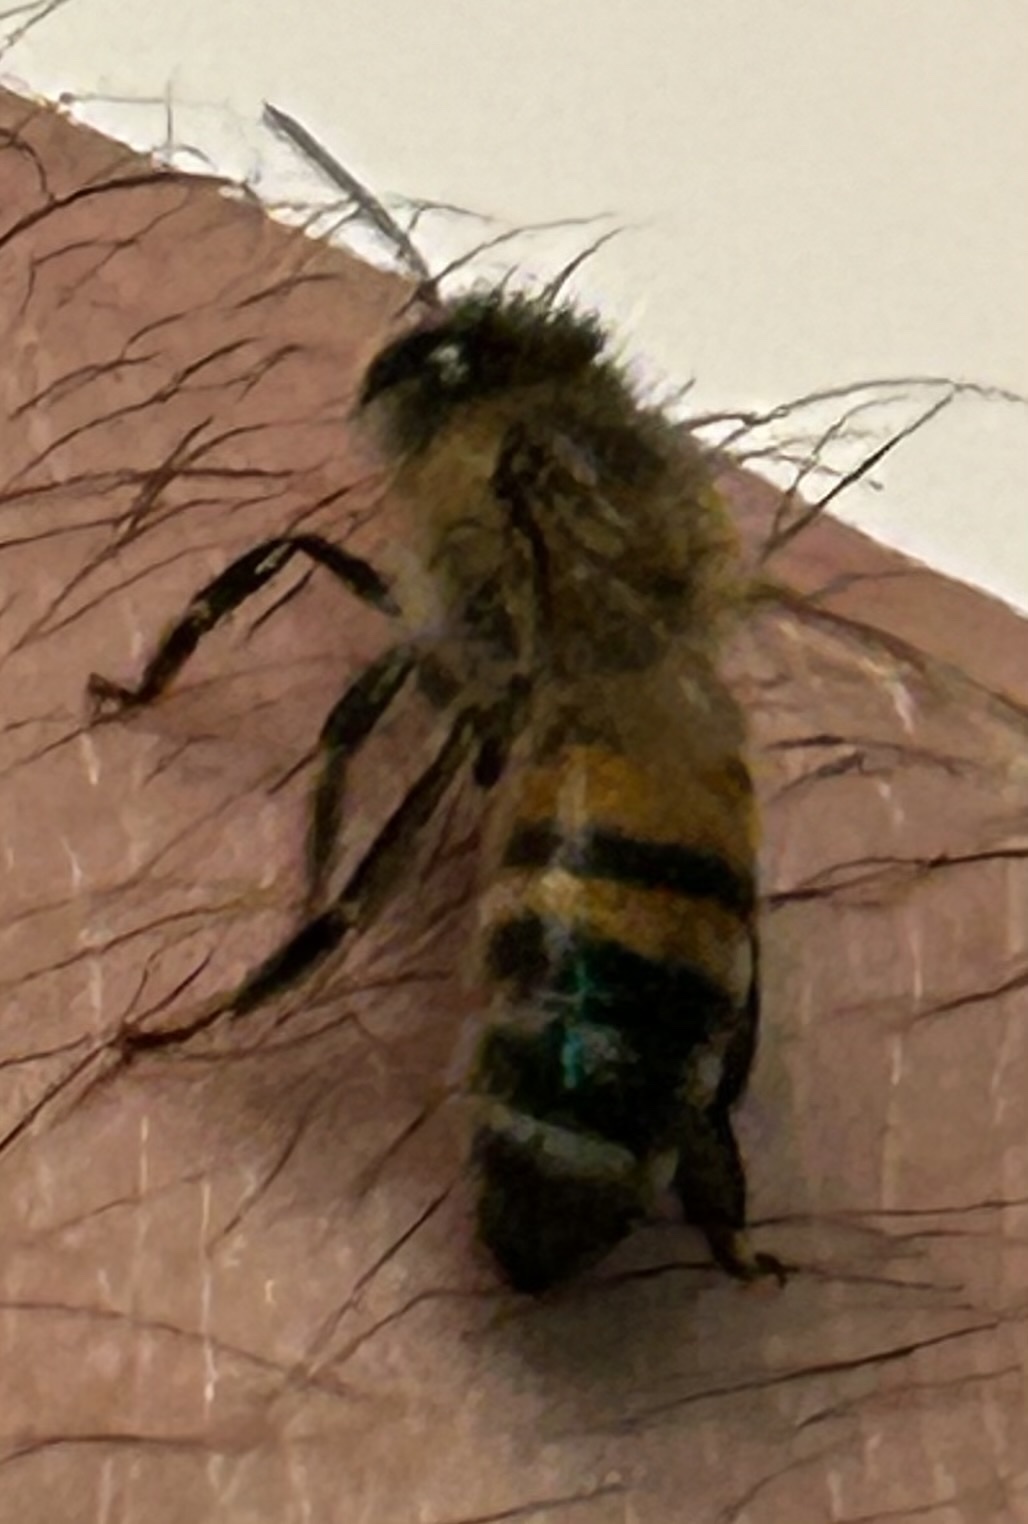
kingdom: Animalia
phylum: Arthropoda
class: Insecta
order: Hymenoptera
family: Apidae
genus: Apis
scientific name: Apis mellifera
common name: Honey bee
